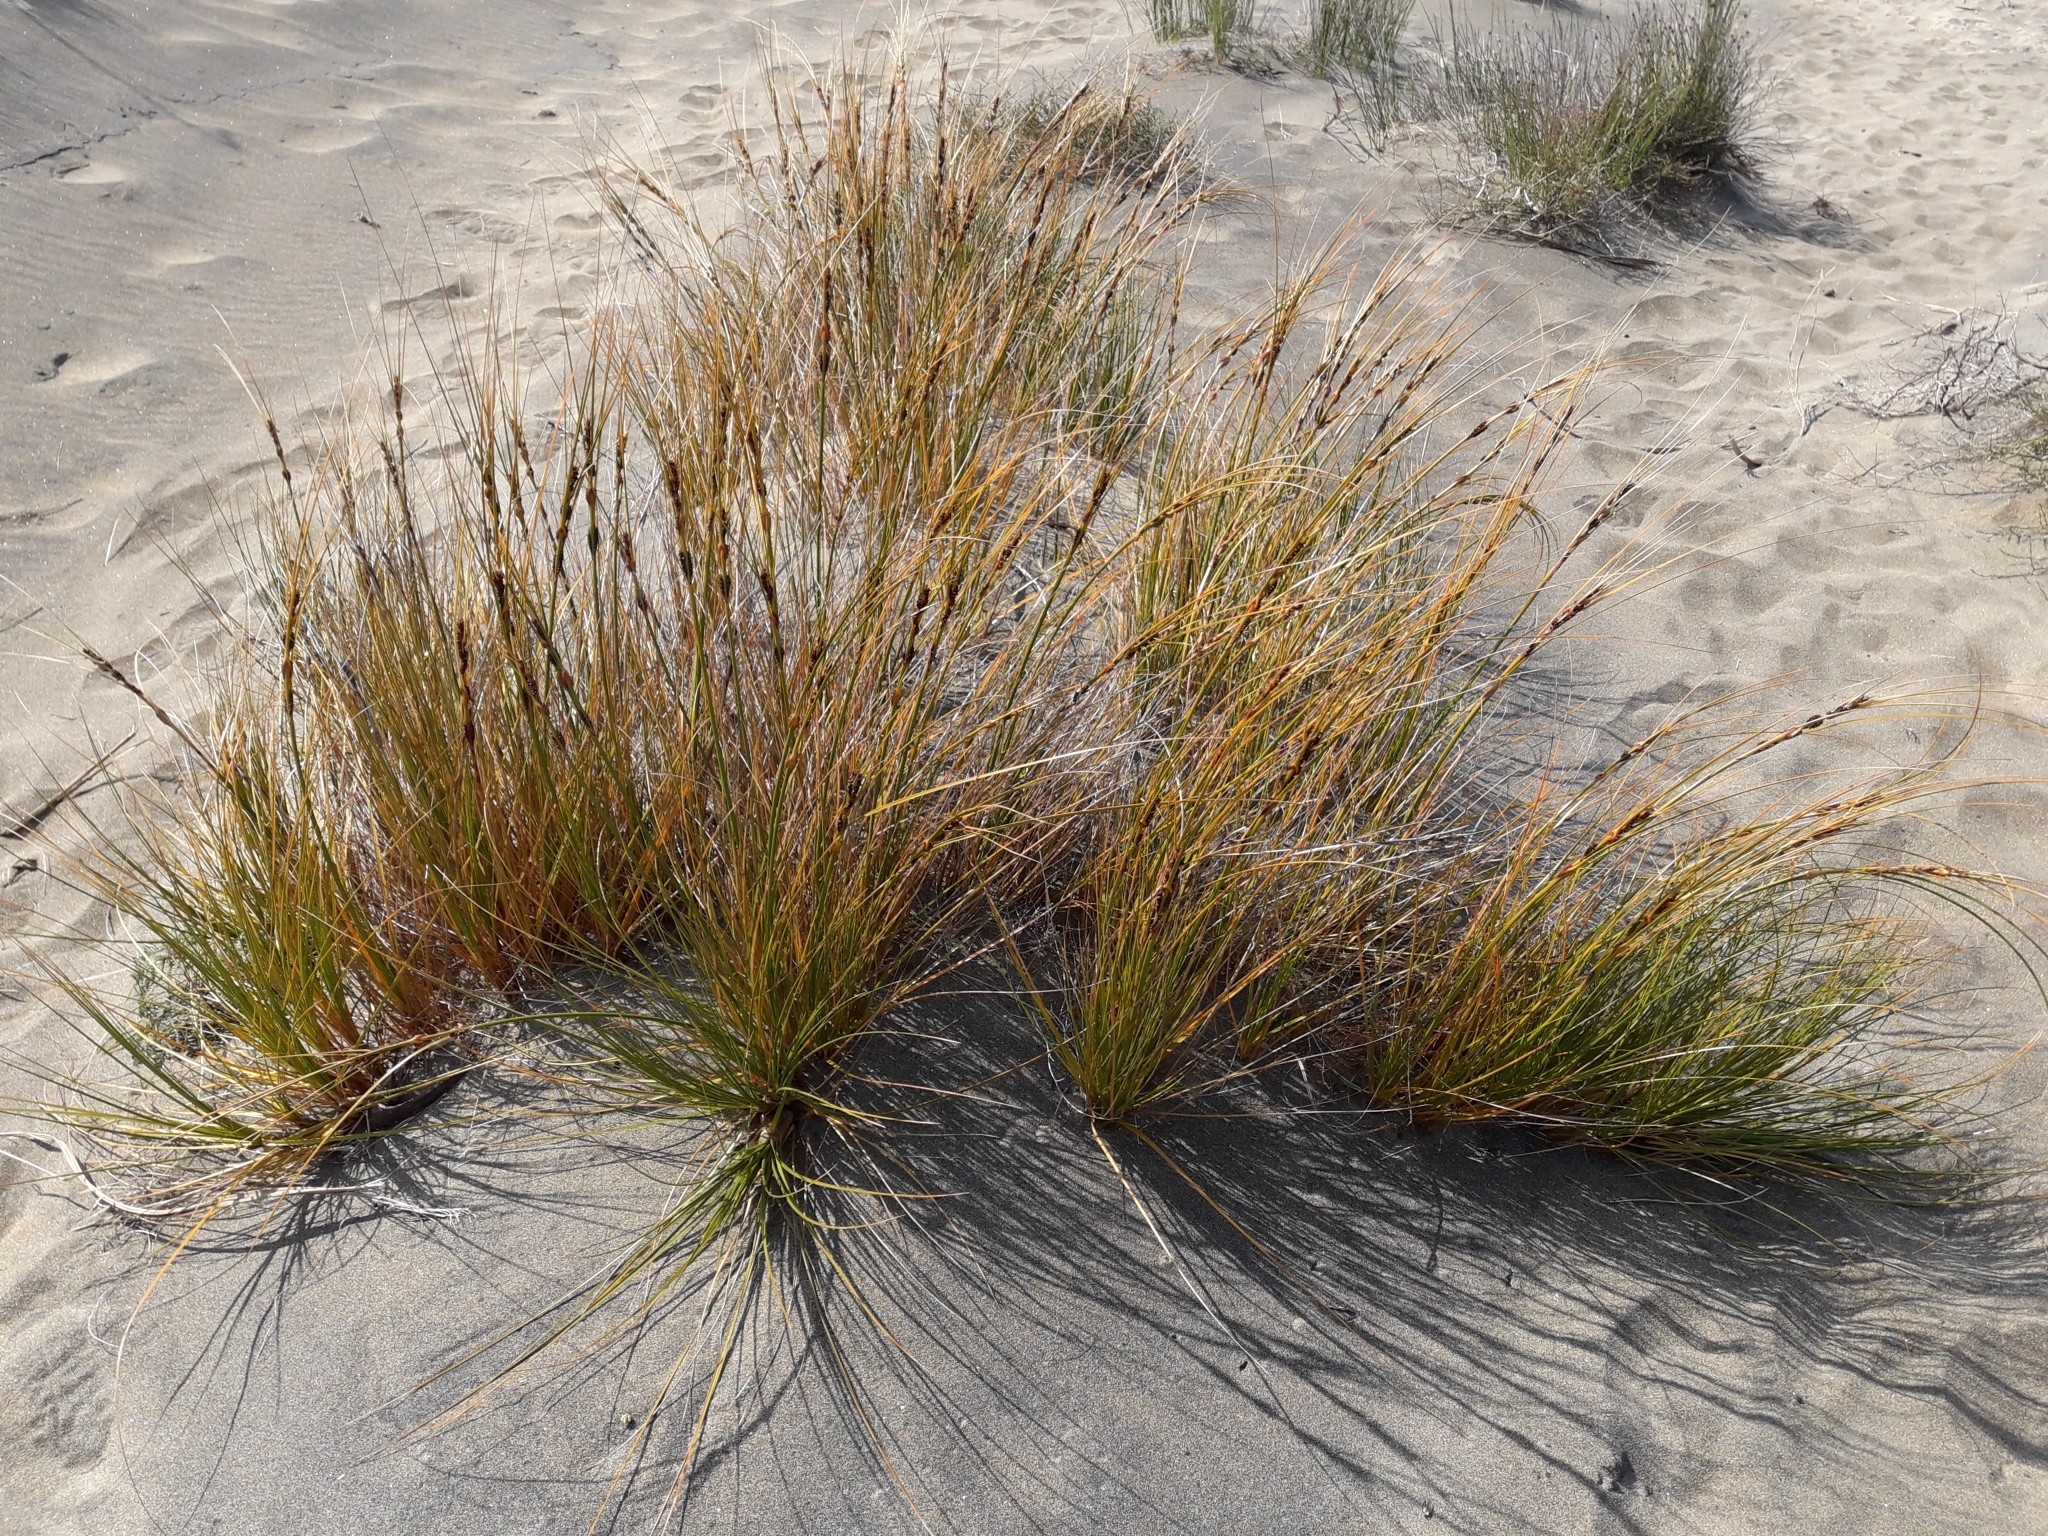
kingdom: Plantae
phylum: Tracheophyta
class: Liliopsida
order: Poales
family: Cyperaceae
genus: Ficinia
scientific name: Ficinia spiralis
